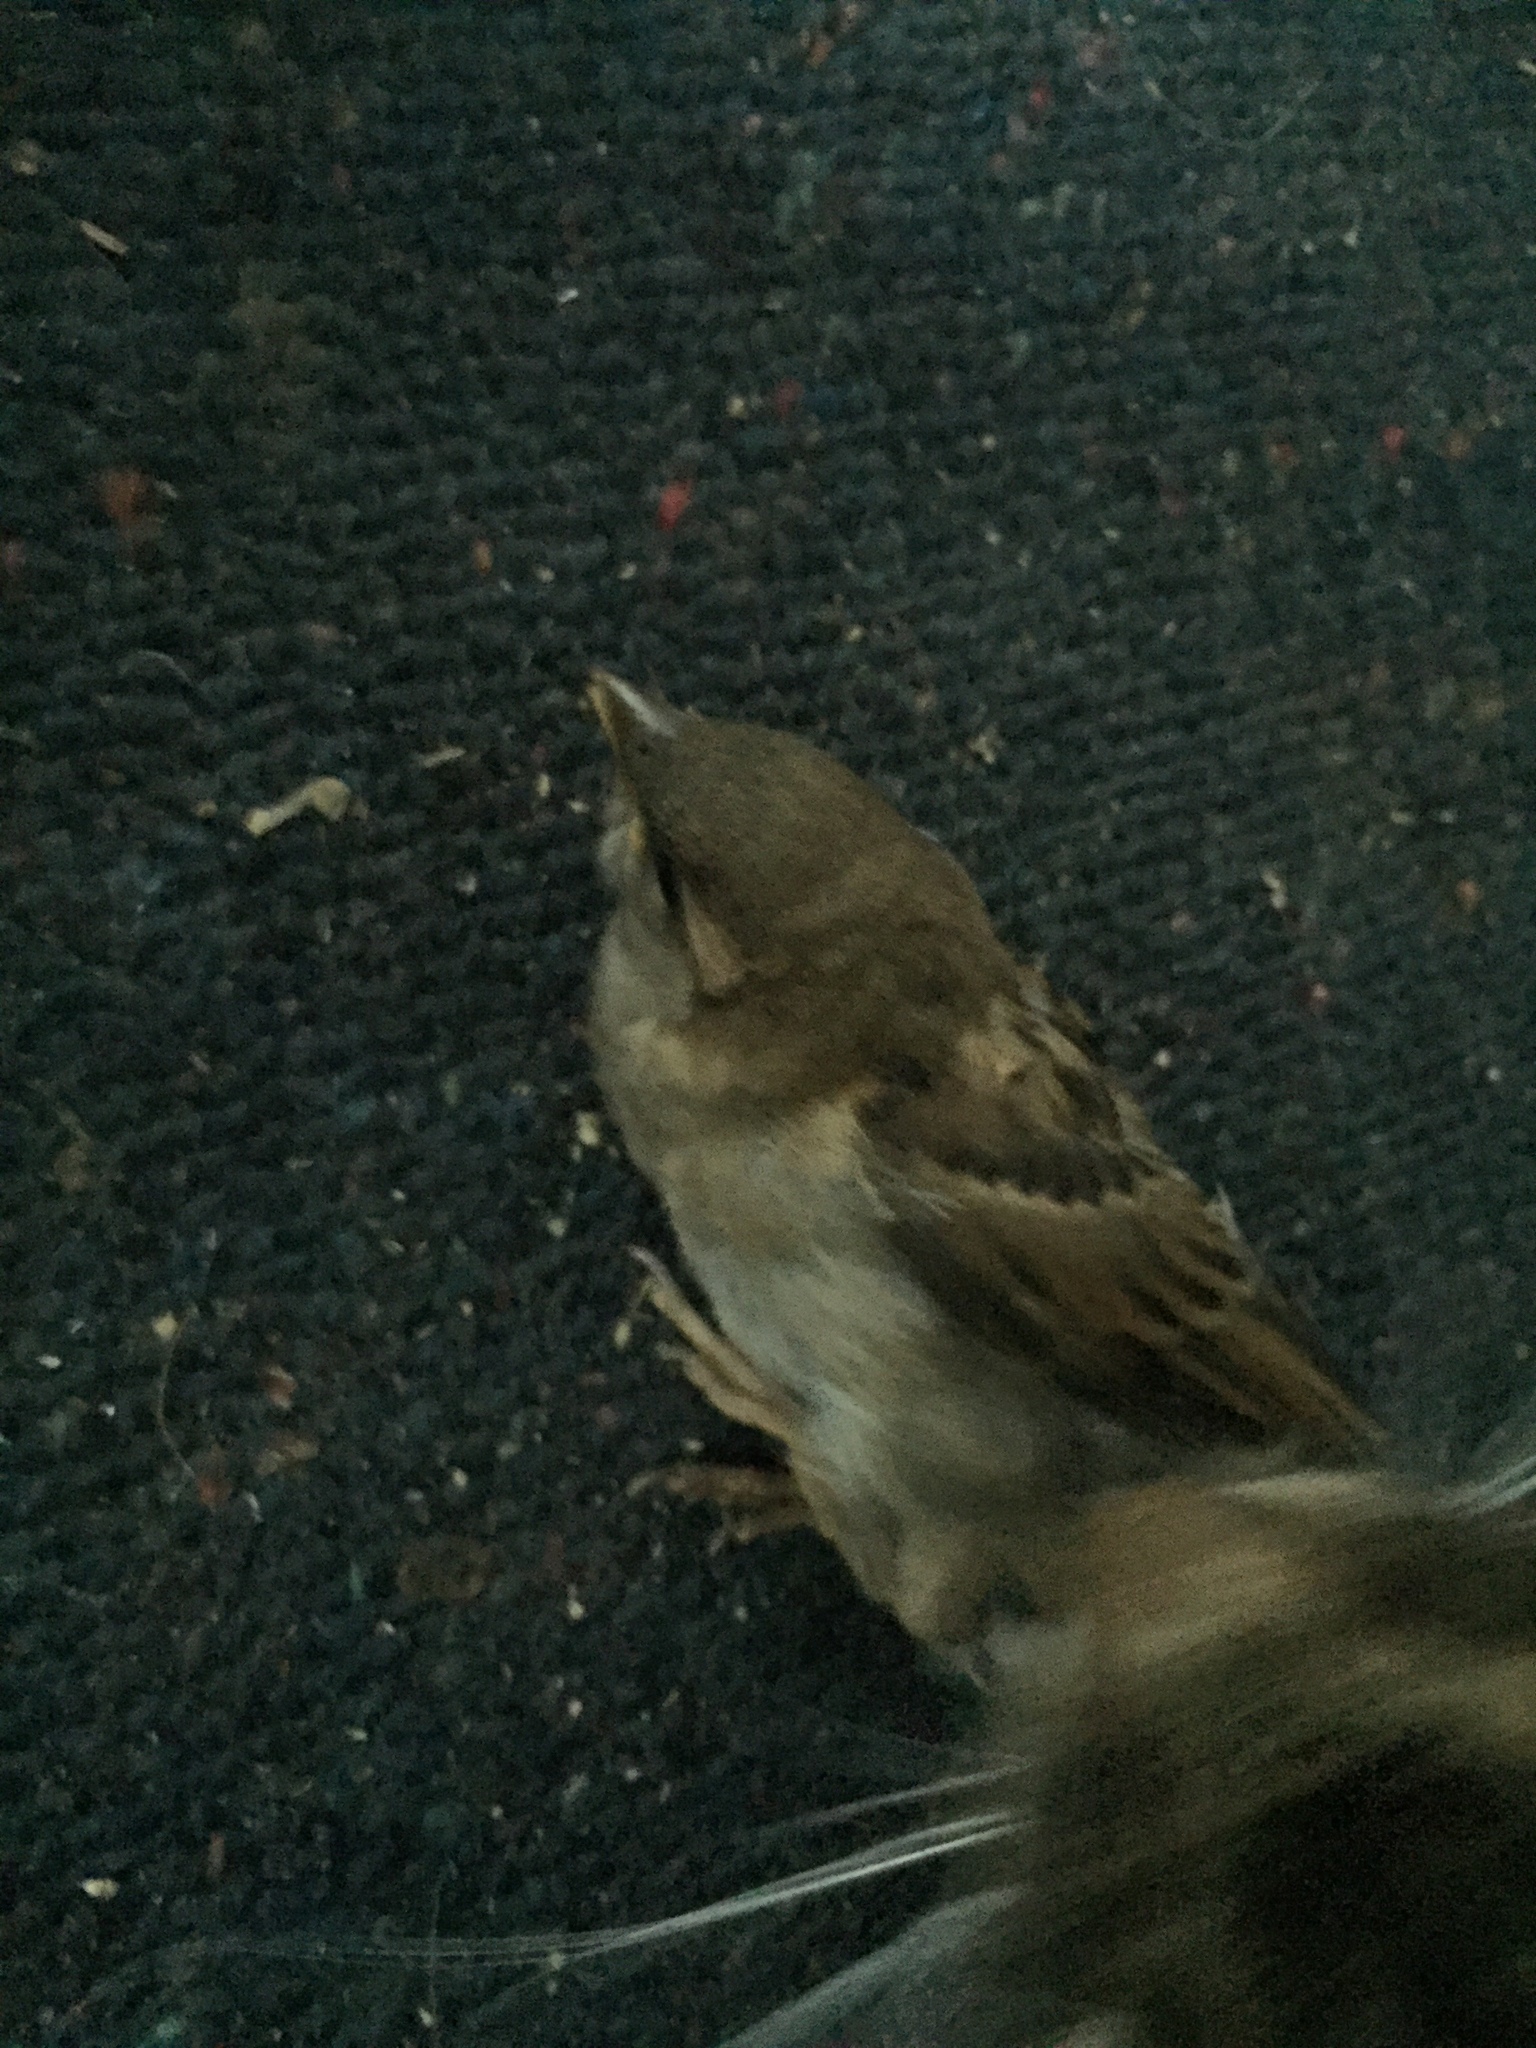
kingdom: Animalia
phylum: Chordata
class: Aves
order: Passeriformes
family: Passeridae
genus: Passer
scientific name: Passer domesticus
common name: House sparrow
